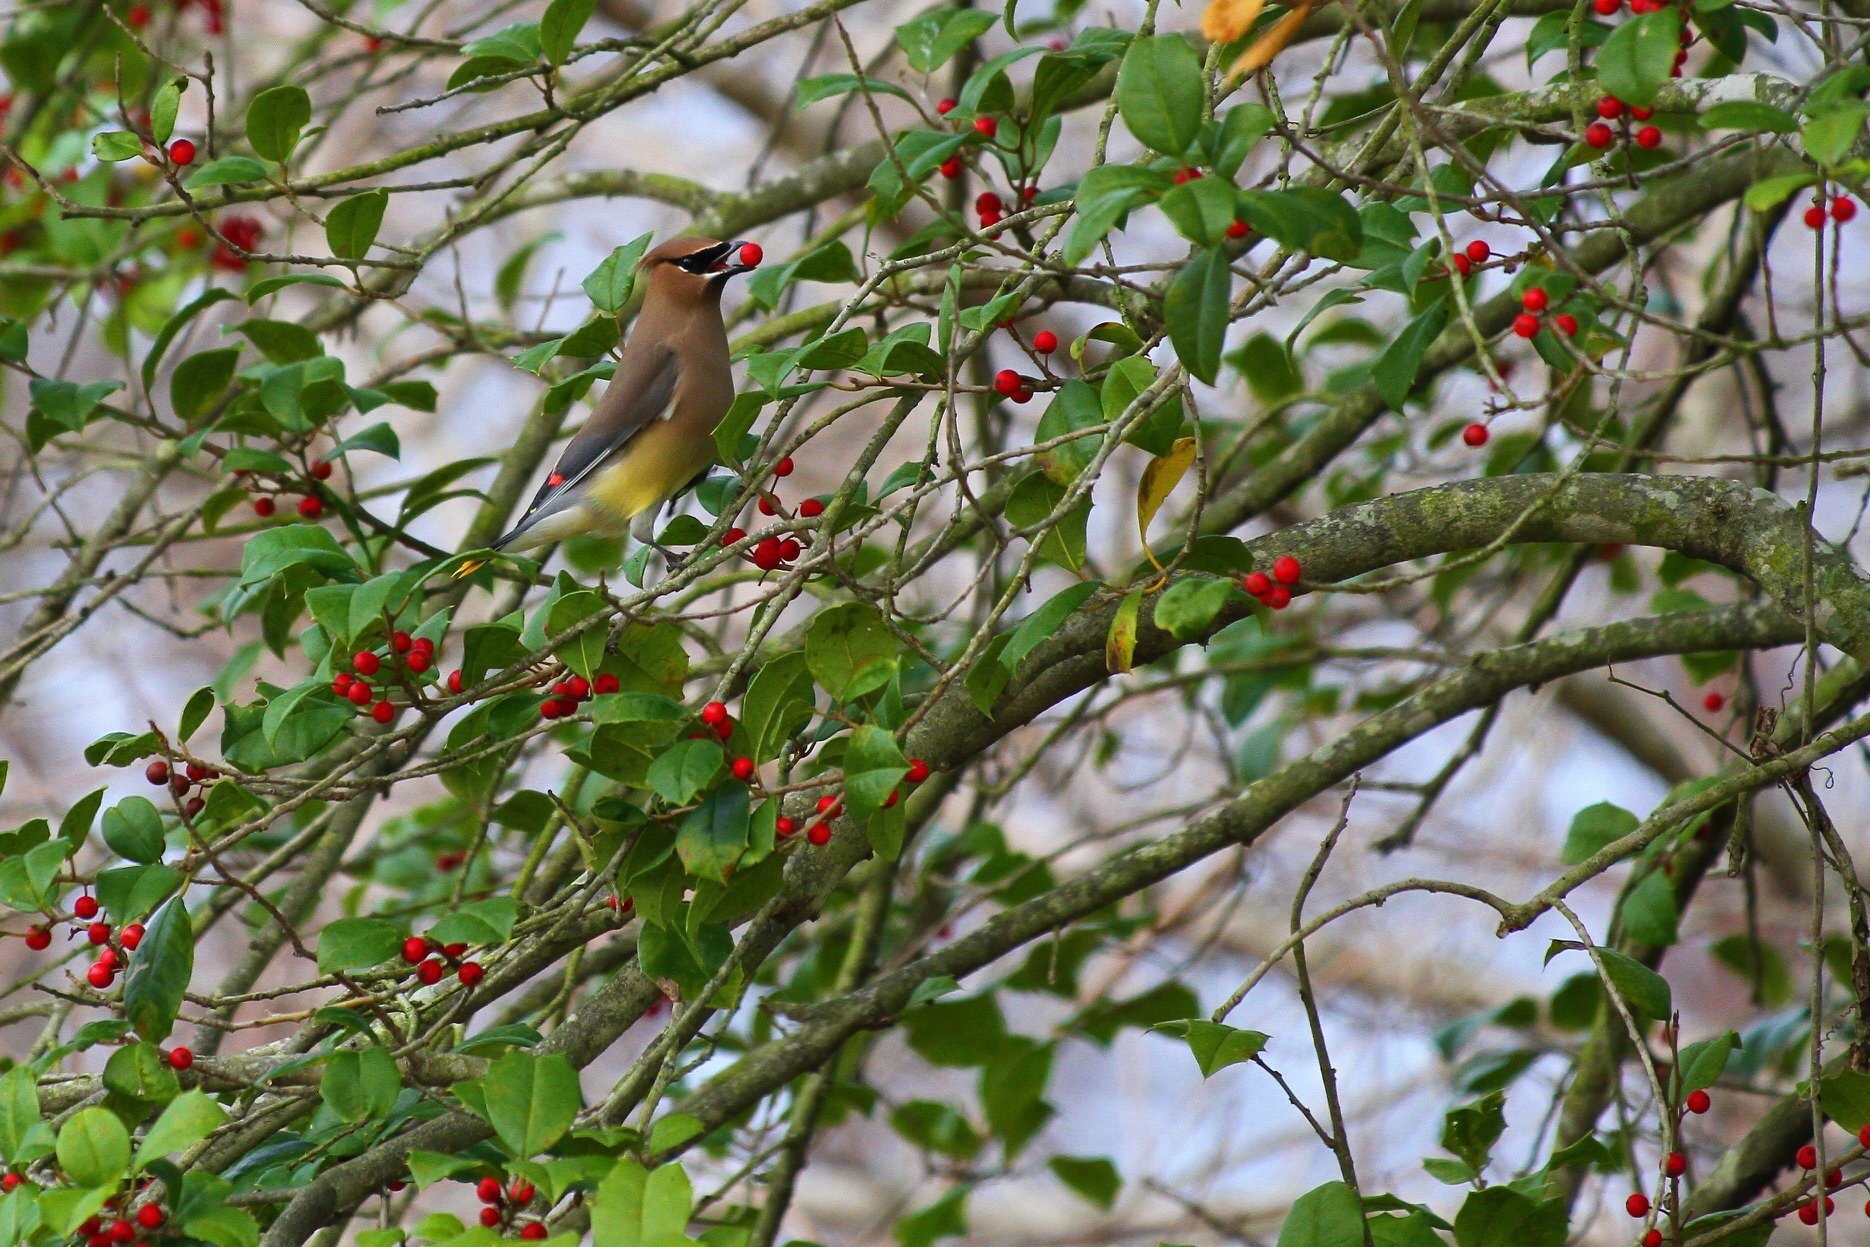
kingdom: Animalia
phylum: Chordata
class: Aves
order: Passeriformes
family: Bombycillidae
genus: Bombycilla
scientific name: Bombycilla cedrorum
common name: Cedar waxwing
